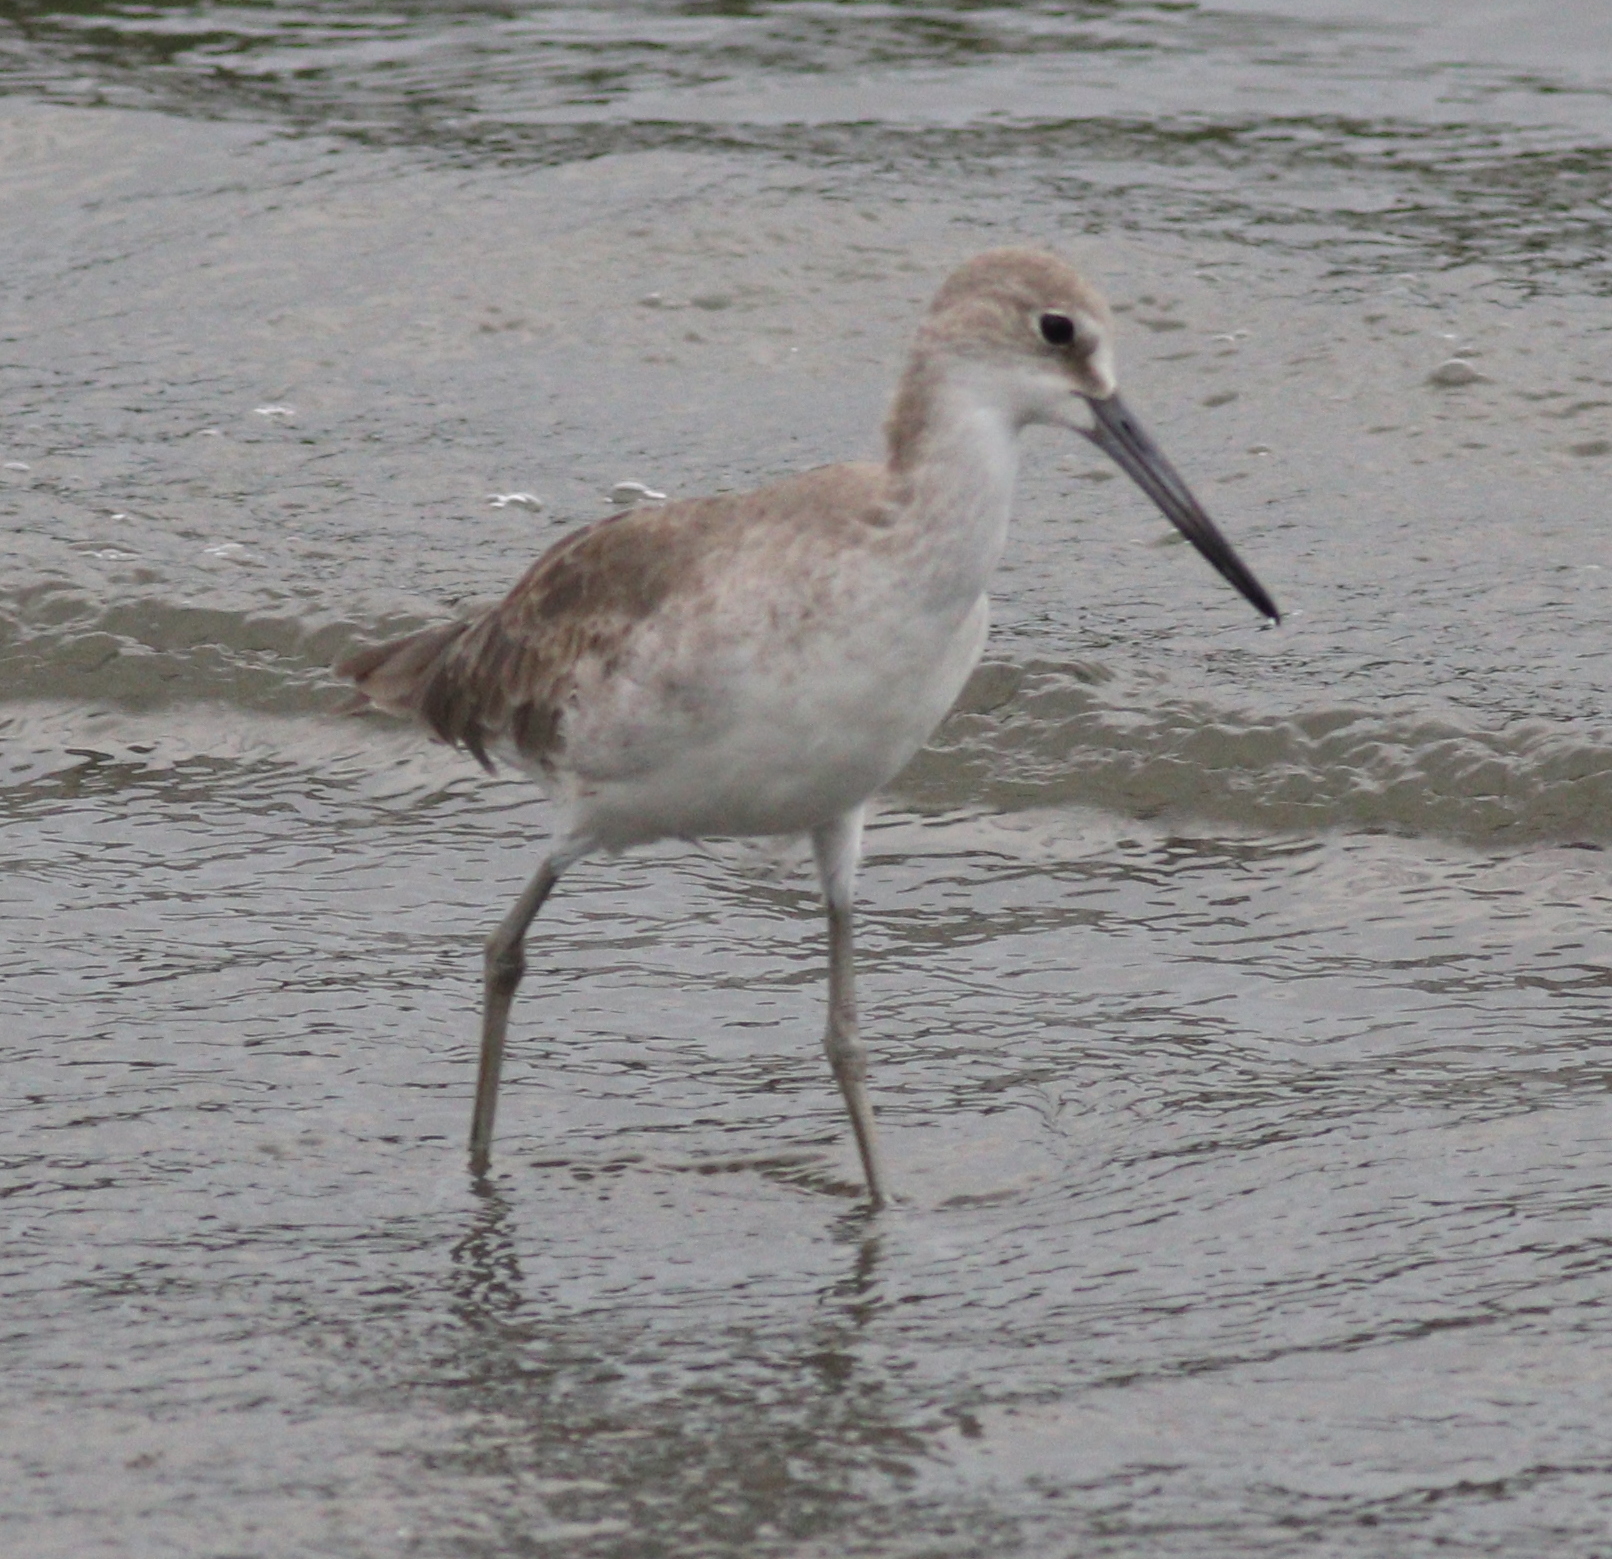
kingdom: Animalia
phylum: Chordata
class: Aves
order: Charadriiformes
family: Scolopacidae
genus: Tringa
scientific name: Tringa semipalmata
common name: Willet
